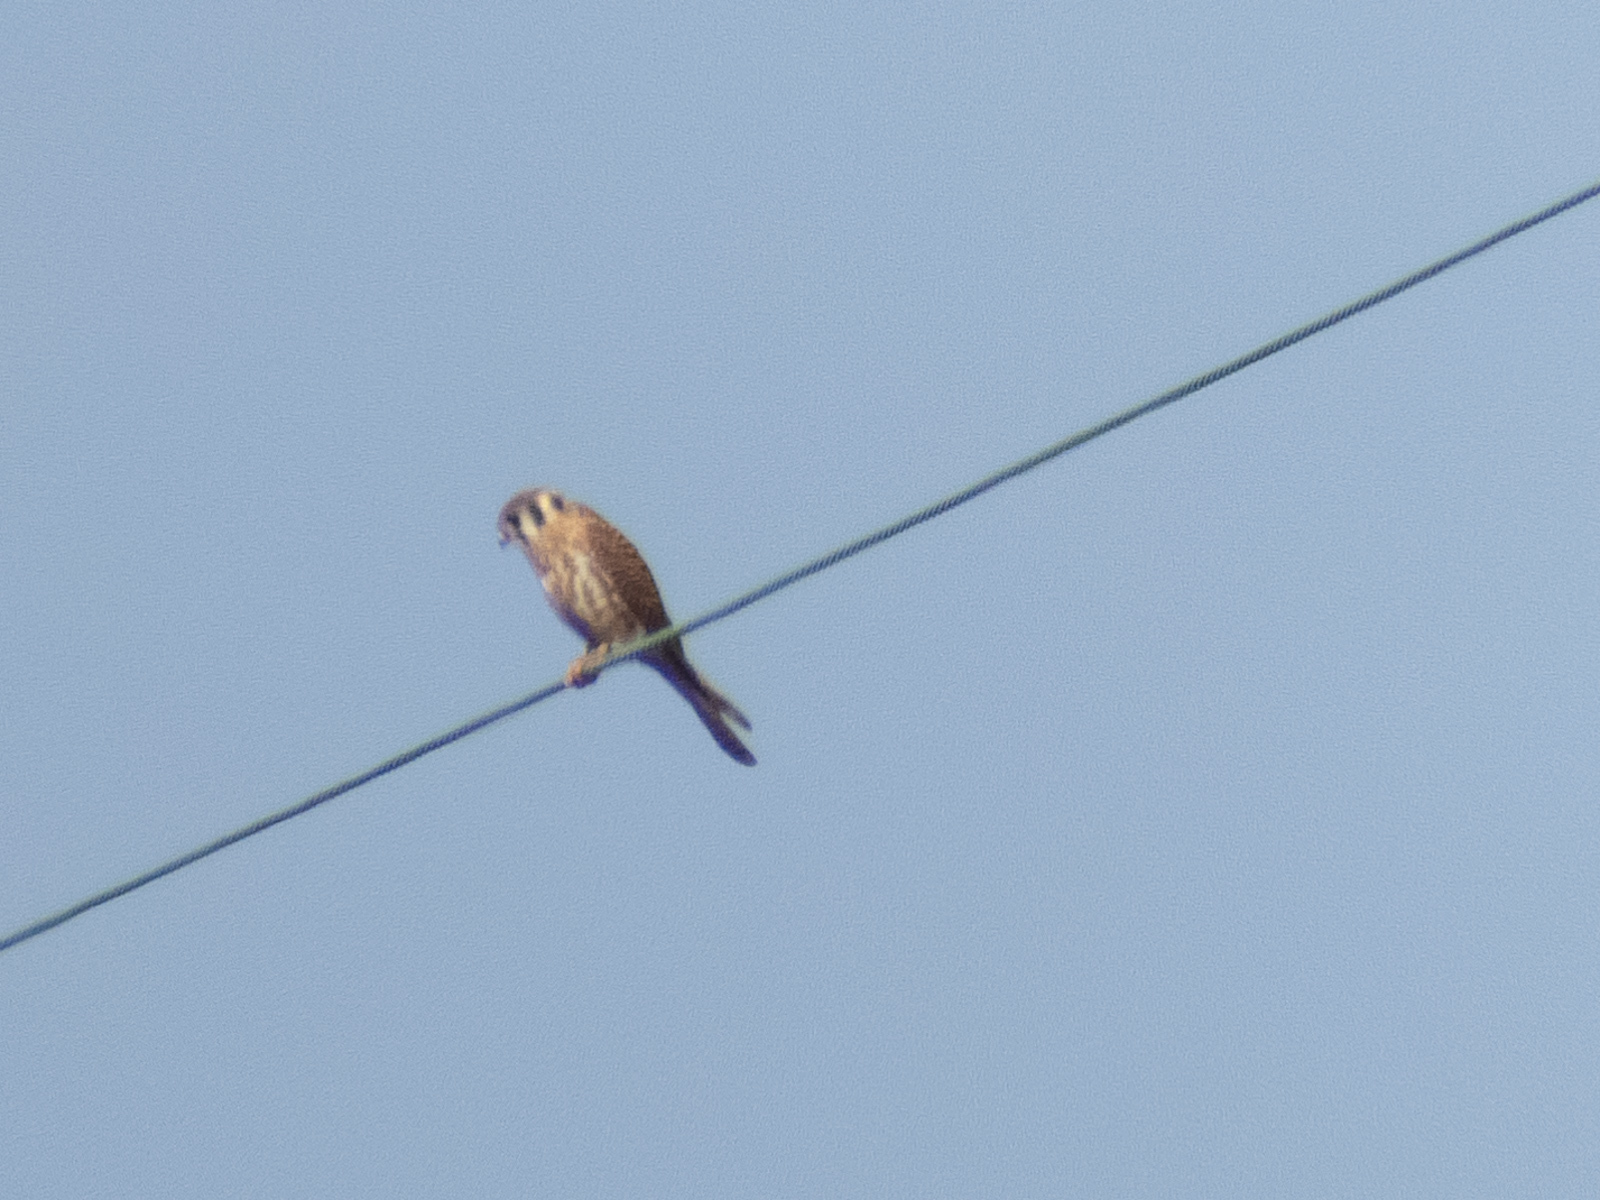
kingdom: Animalia
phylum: Chordata
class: Aves
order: Falconiformes
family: Falconidae
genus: Falco
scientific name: Falco sparverius
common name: American kestrel
